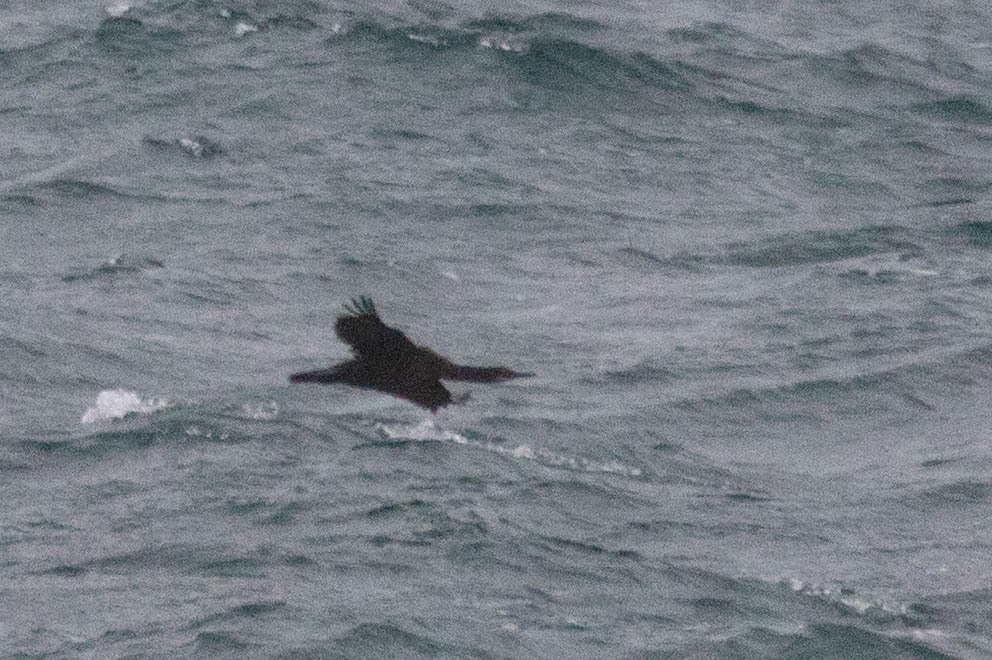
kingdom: Animalia
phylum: Chordata
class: Aves
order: Suliformes
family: Phalacrocoracidae
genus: Urile
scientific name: Urile penicillatus
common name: Brandt's cormorant
